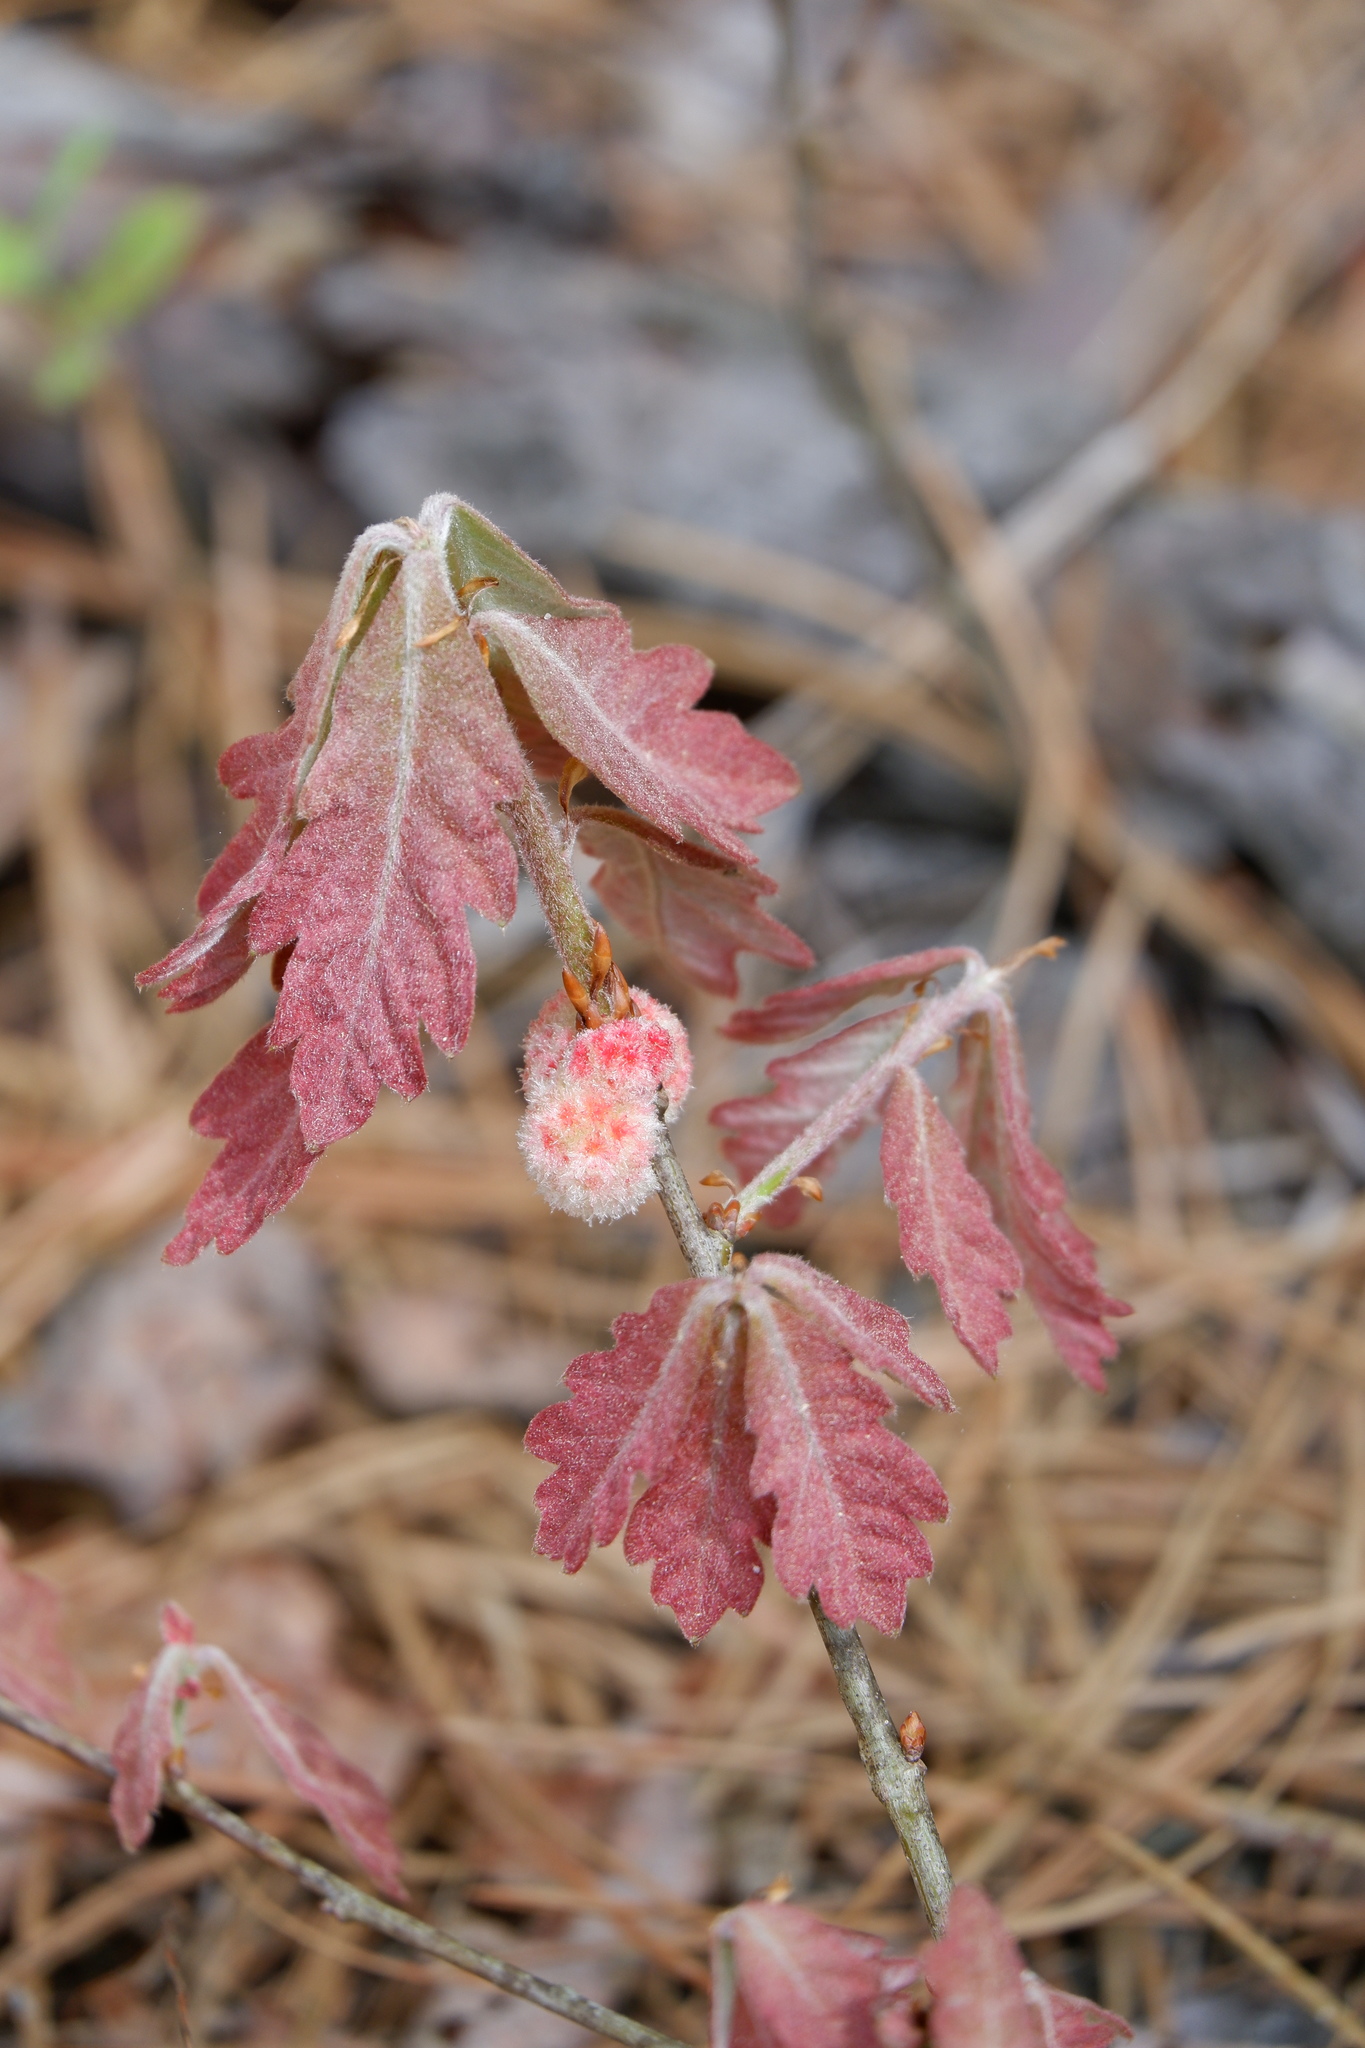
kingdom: Animalia
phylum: Arthropoda
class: Insecta
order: Hymenoptera
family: Cynipidae
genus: Callirhytis
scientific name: Callirhytis
